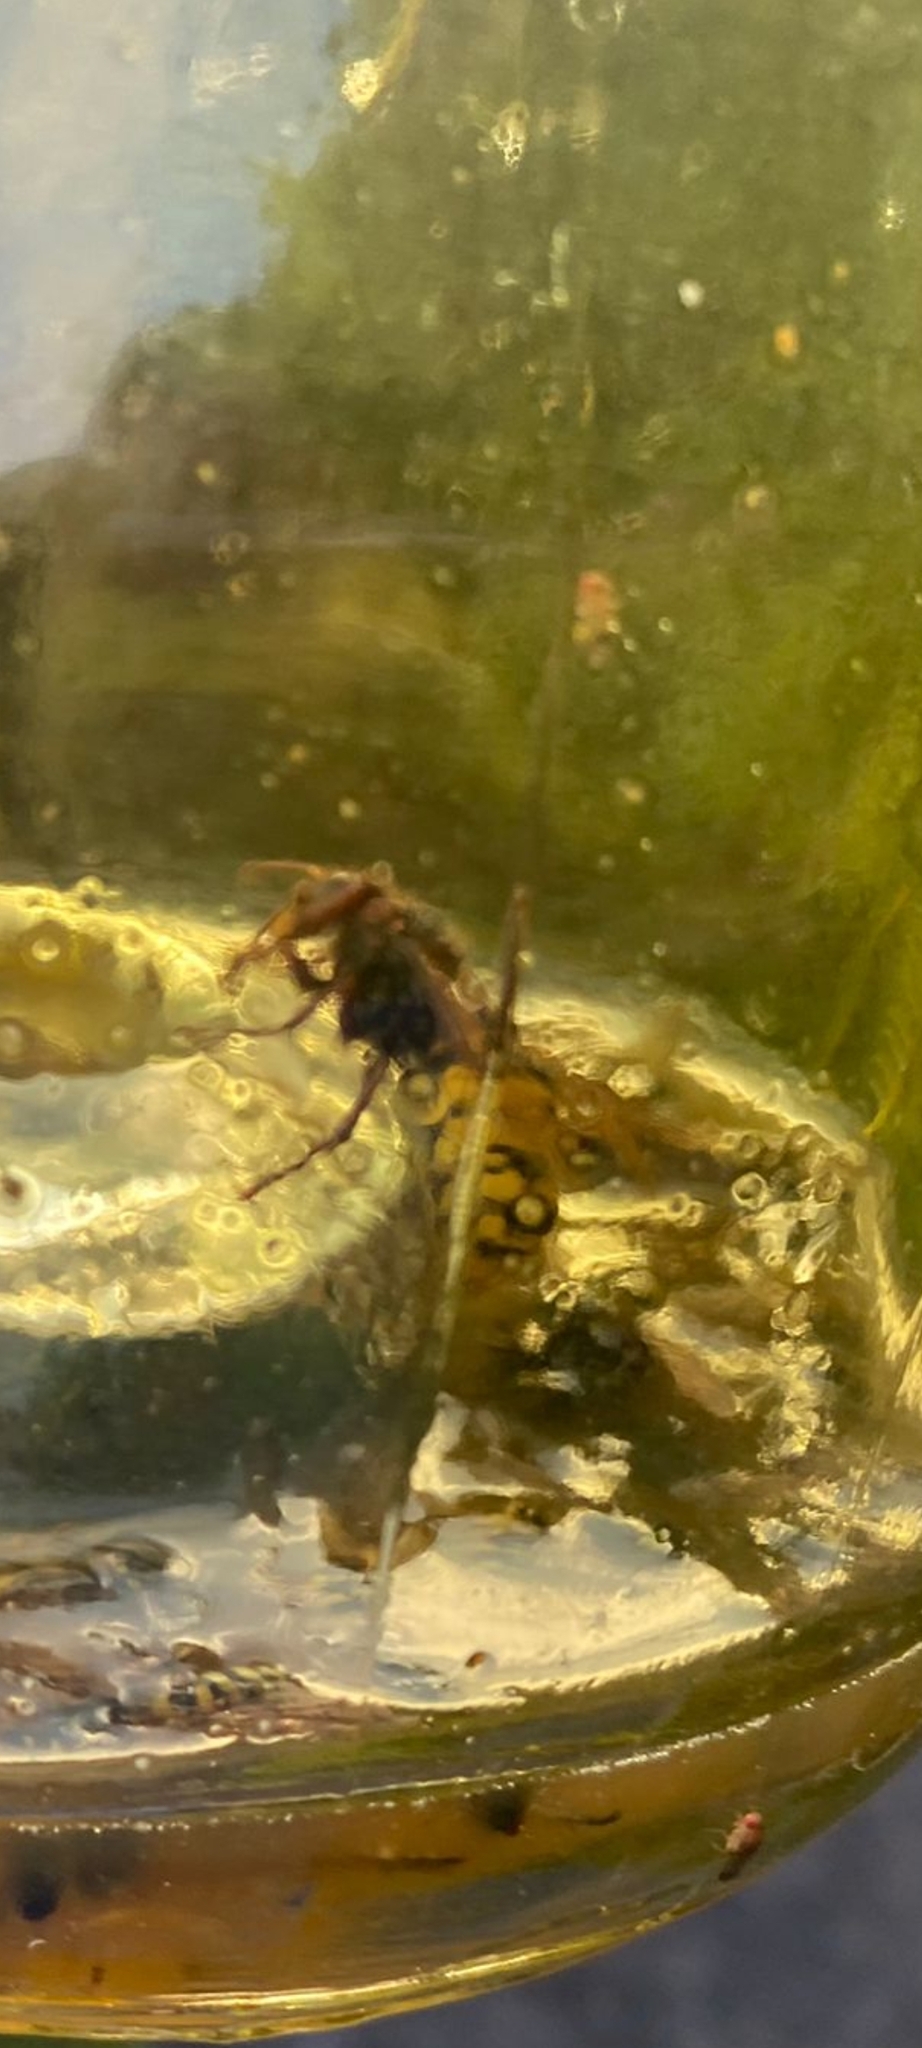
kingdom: Animalia
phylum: Arthropoda
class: Insecta
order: Hymenoptera
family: Vespidae
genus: Vespa
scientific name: Vespa crabro
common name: Hornet
